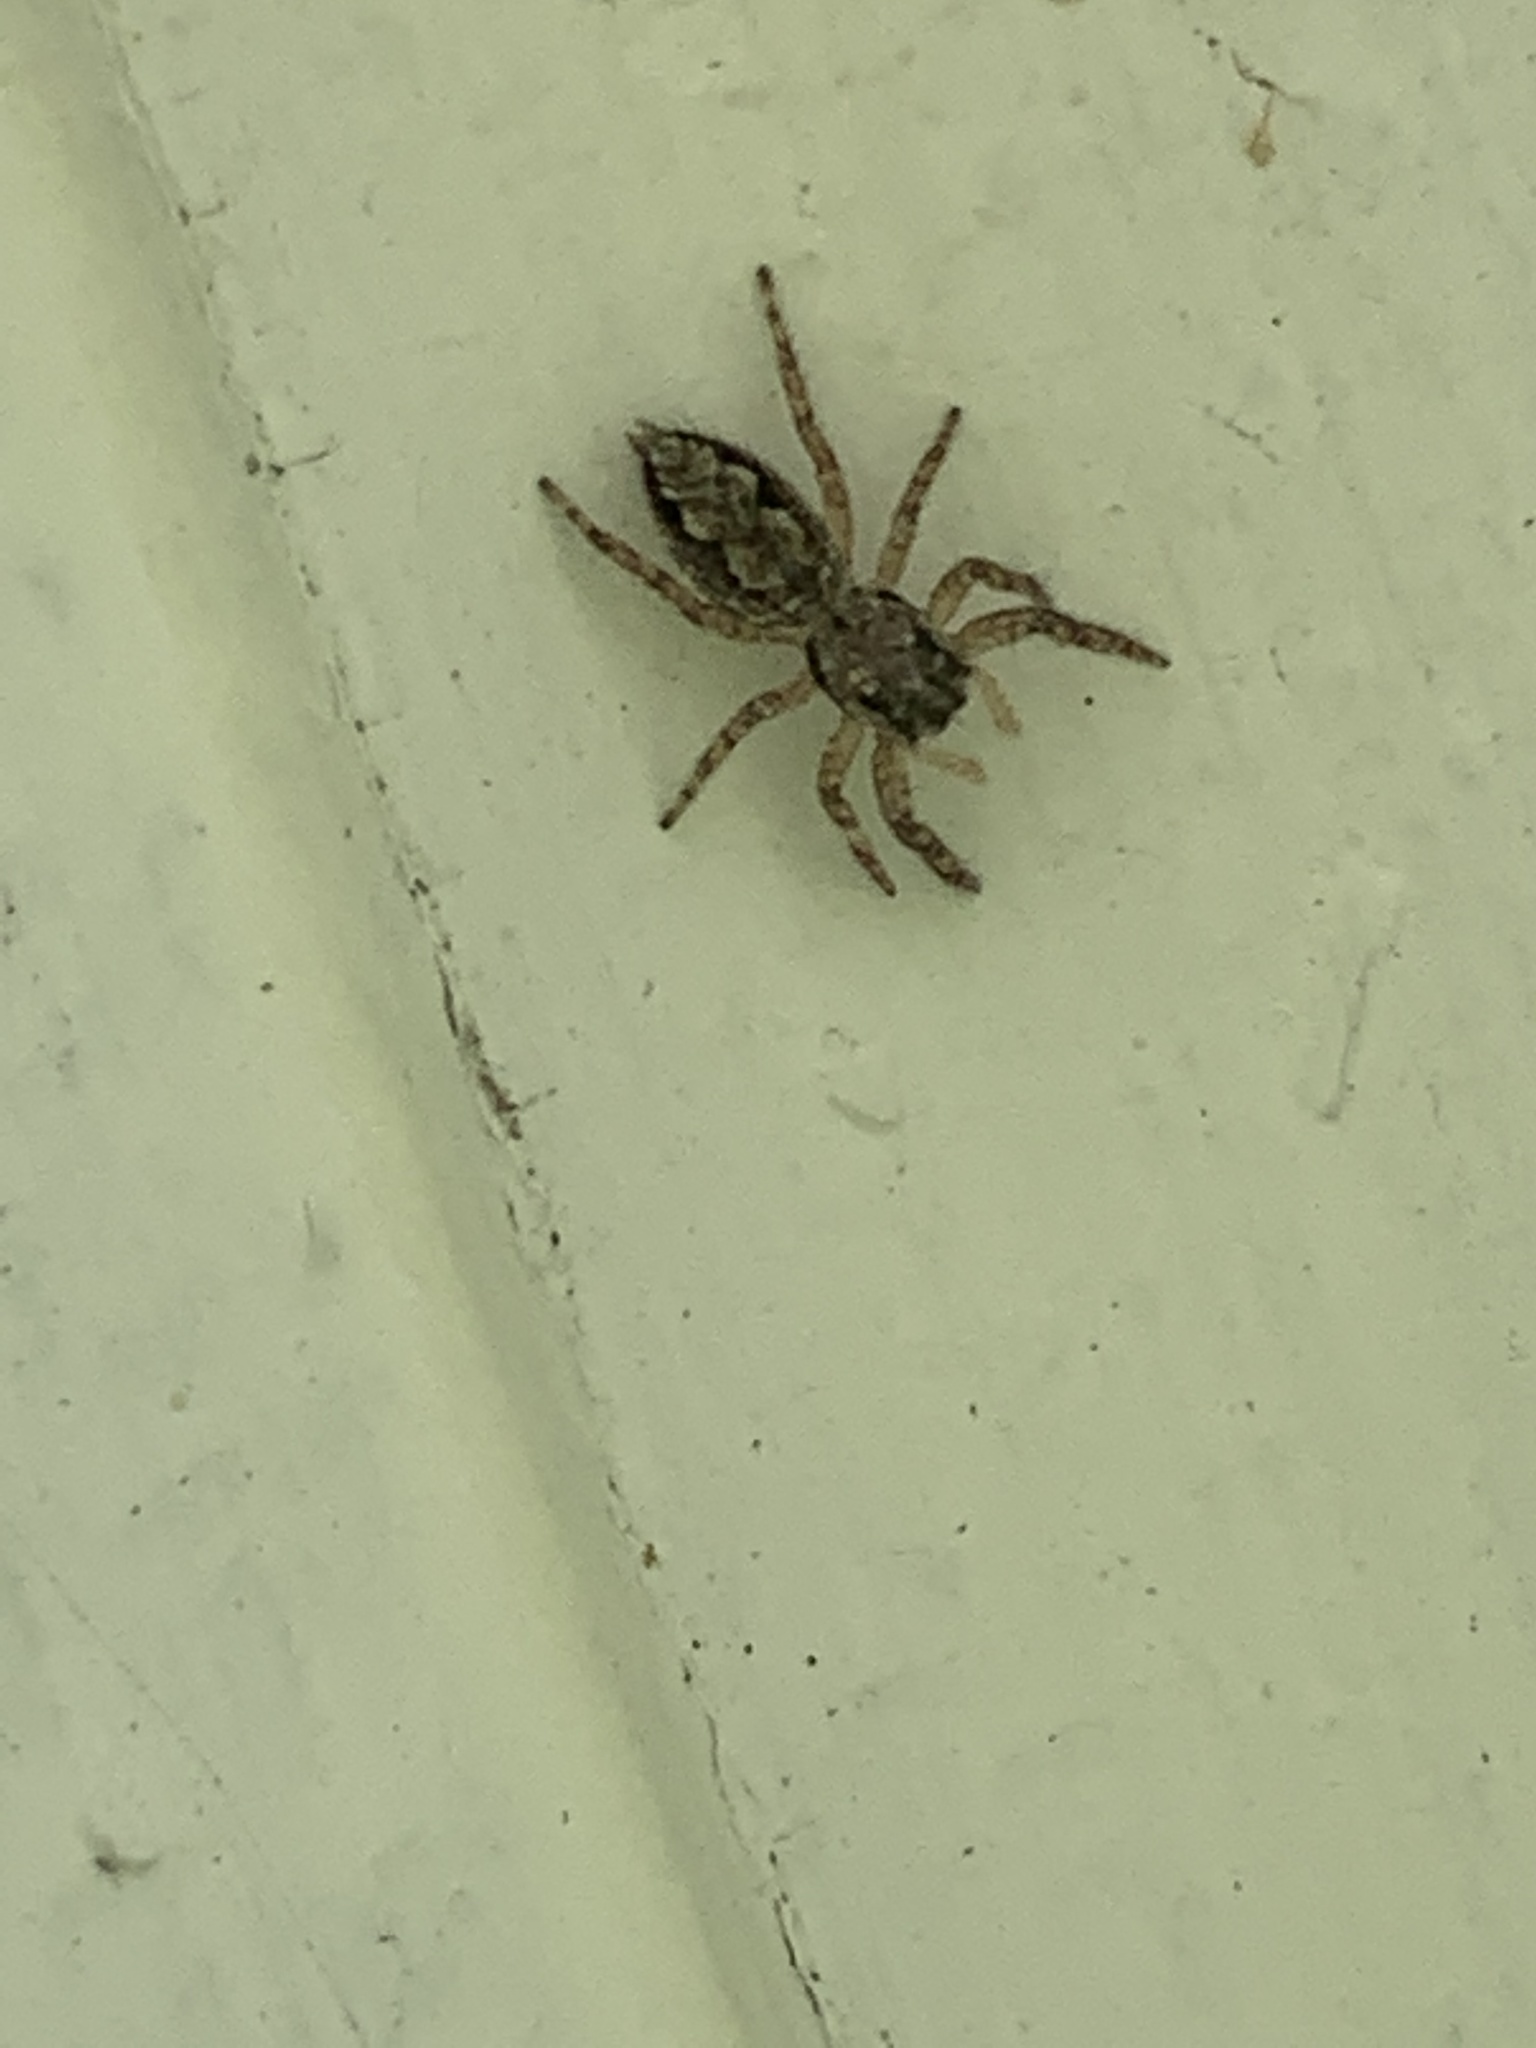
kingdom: Animalia
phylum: Arthropoda
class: Arachnida
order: Araneae
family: Salticidae
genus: Platycryptus
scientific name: Platycryptus undatus
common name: Tan jumping spider
